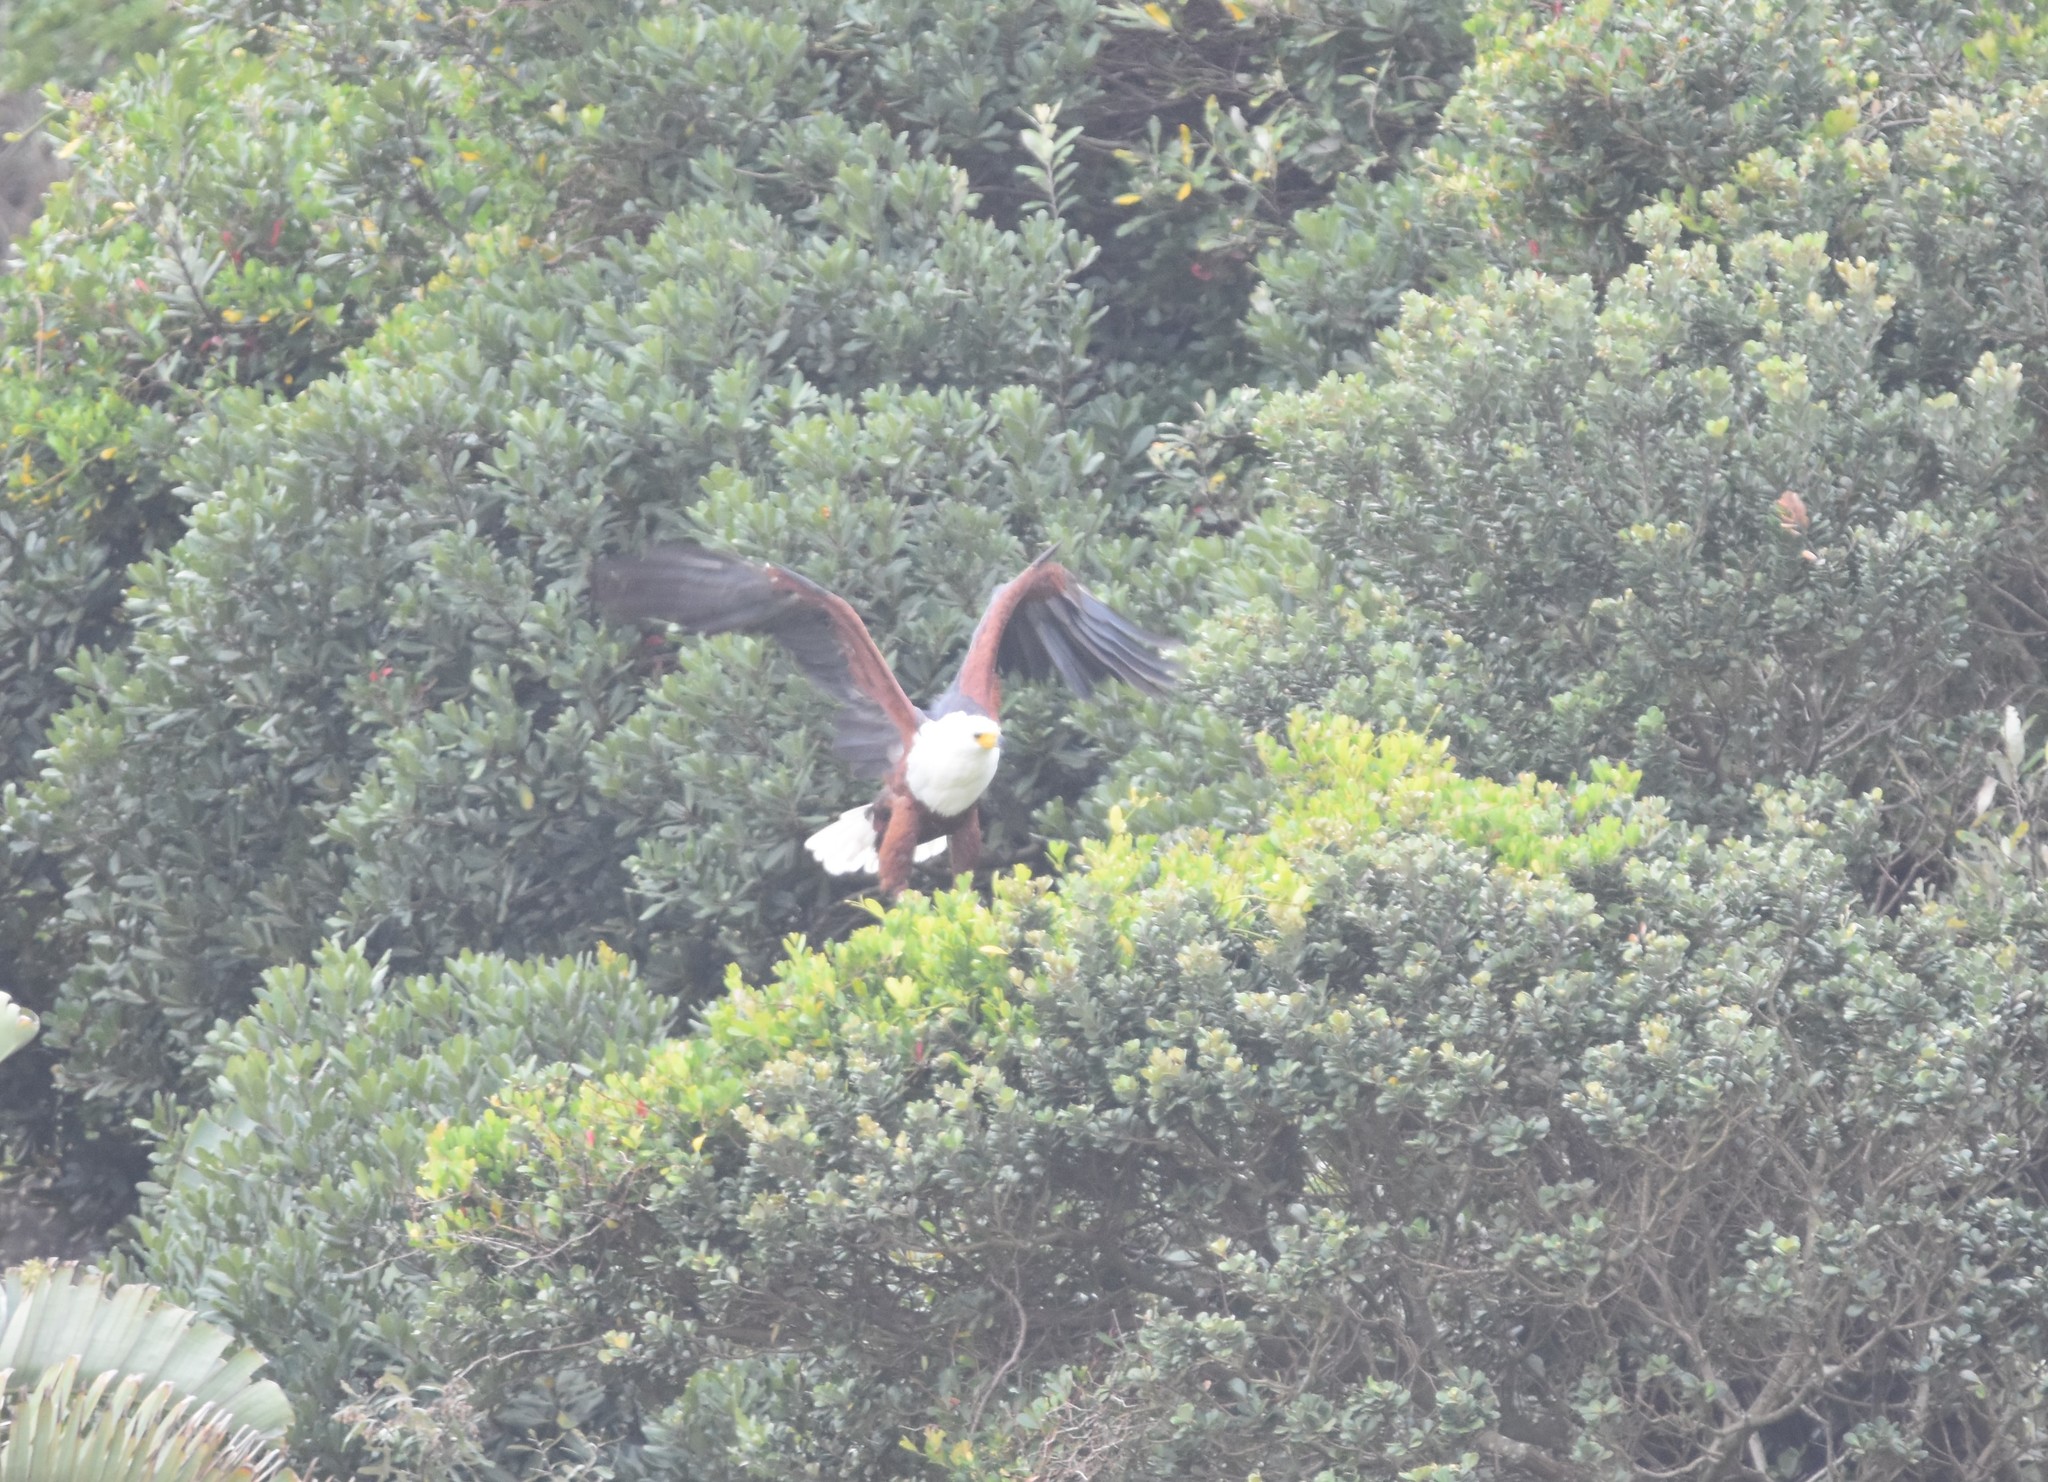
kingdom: Animalia
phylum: Chordata
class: Aves
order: Accipitriformes
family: Accipitridae
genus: Haliaeetus
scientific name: Haliaeetus vocifer
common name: African fish eagle
